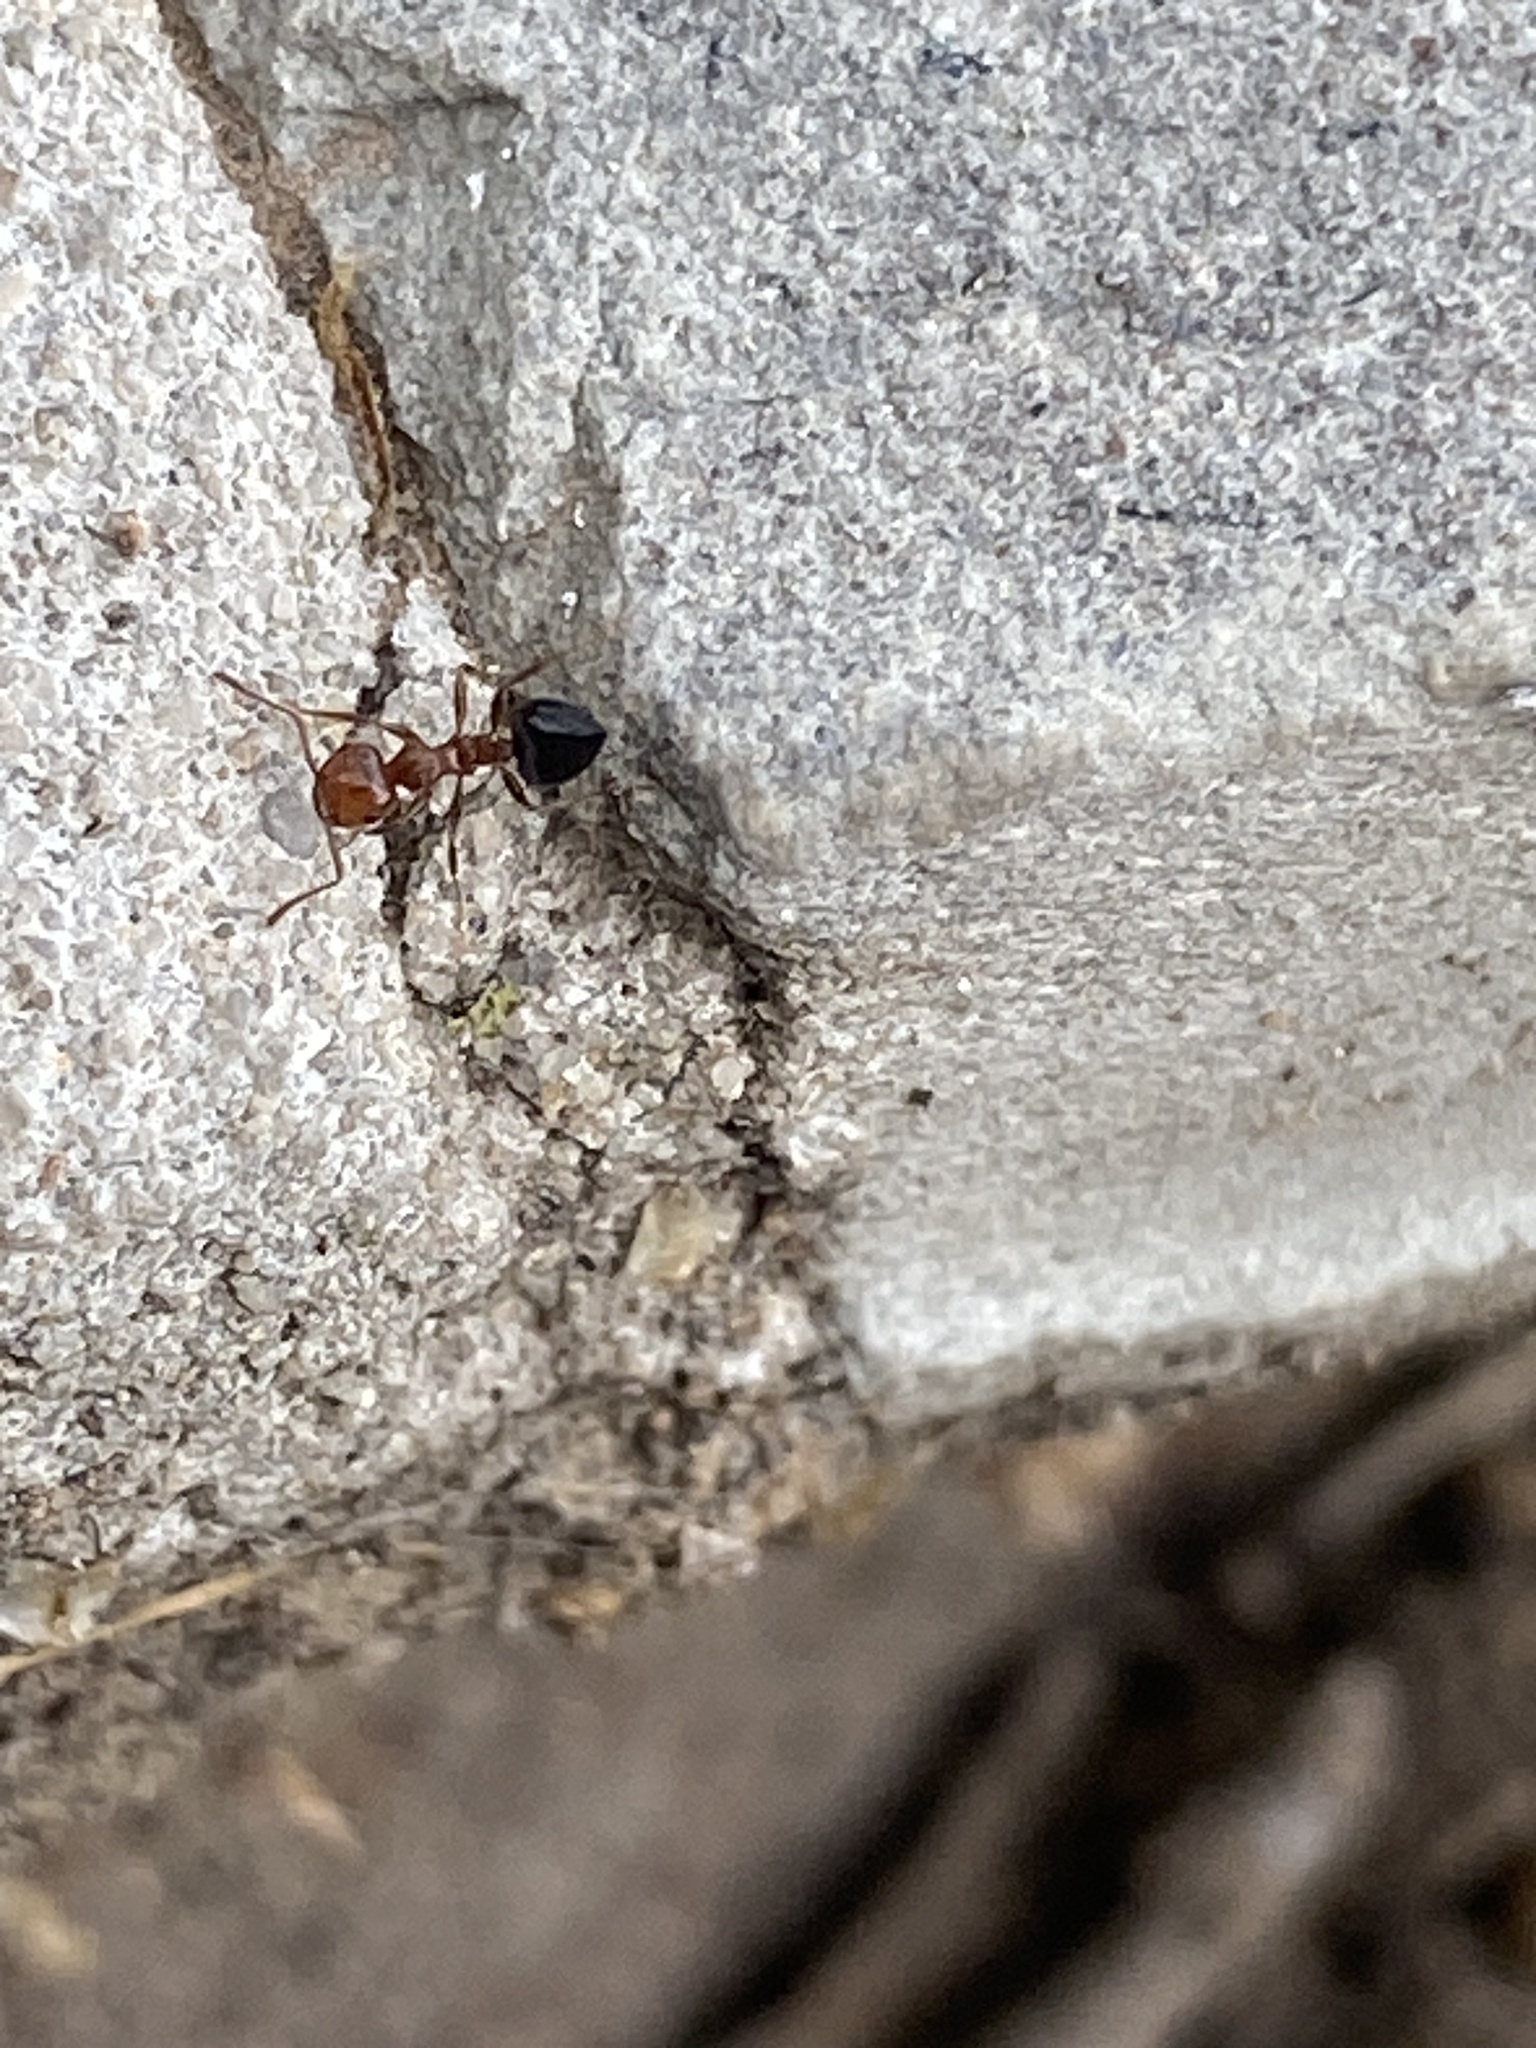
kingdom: Animalia
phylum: Arthropoda
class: Insecta
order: Hymenoptera
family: Formicidae
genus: Crematogaster
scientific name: Crematogaster laeviuscula
